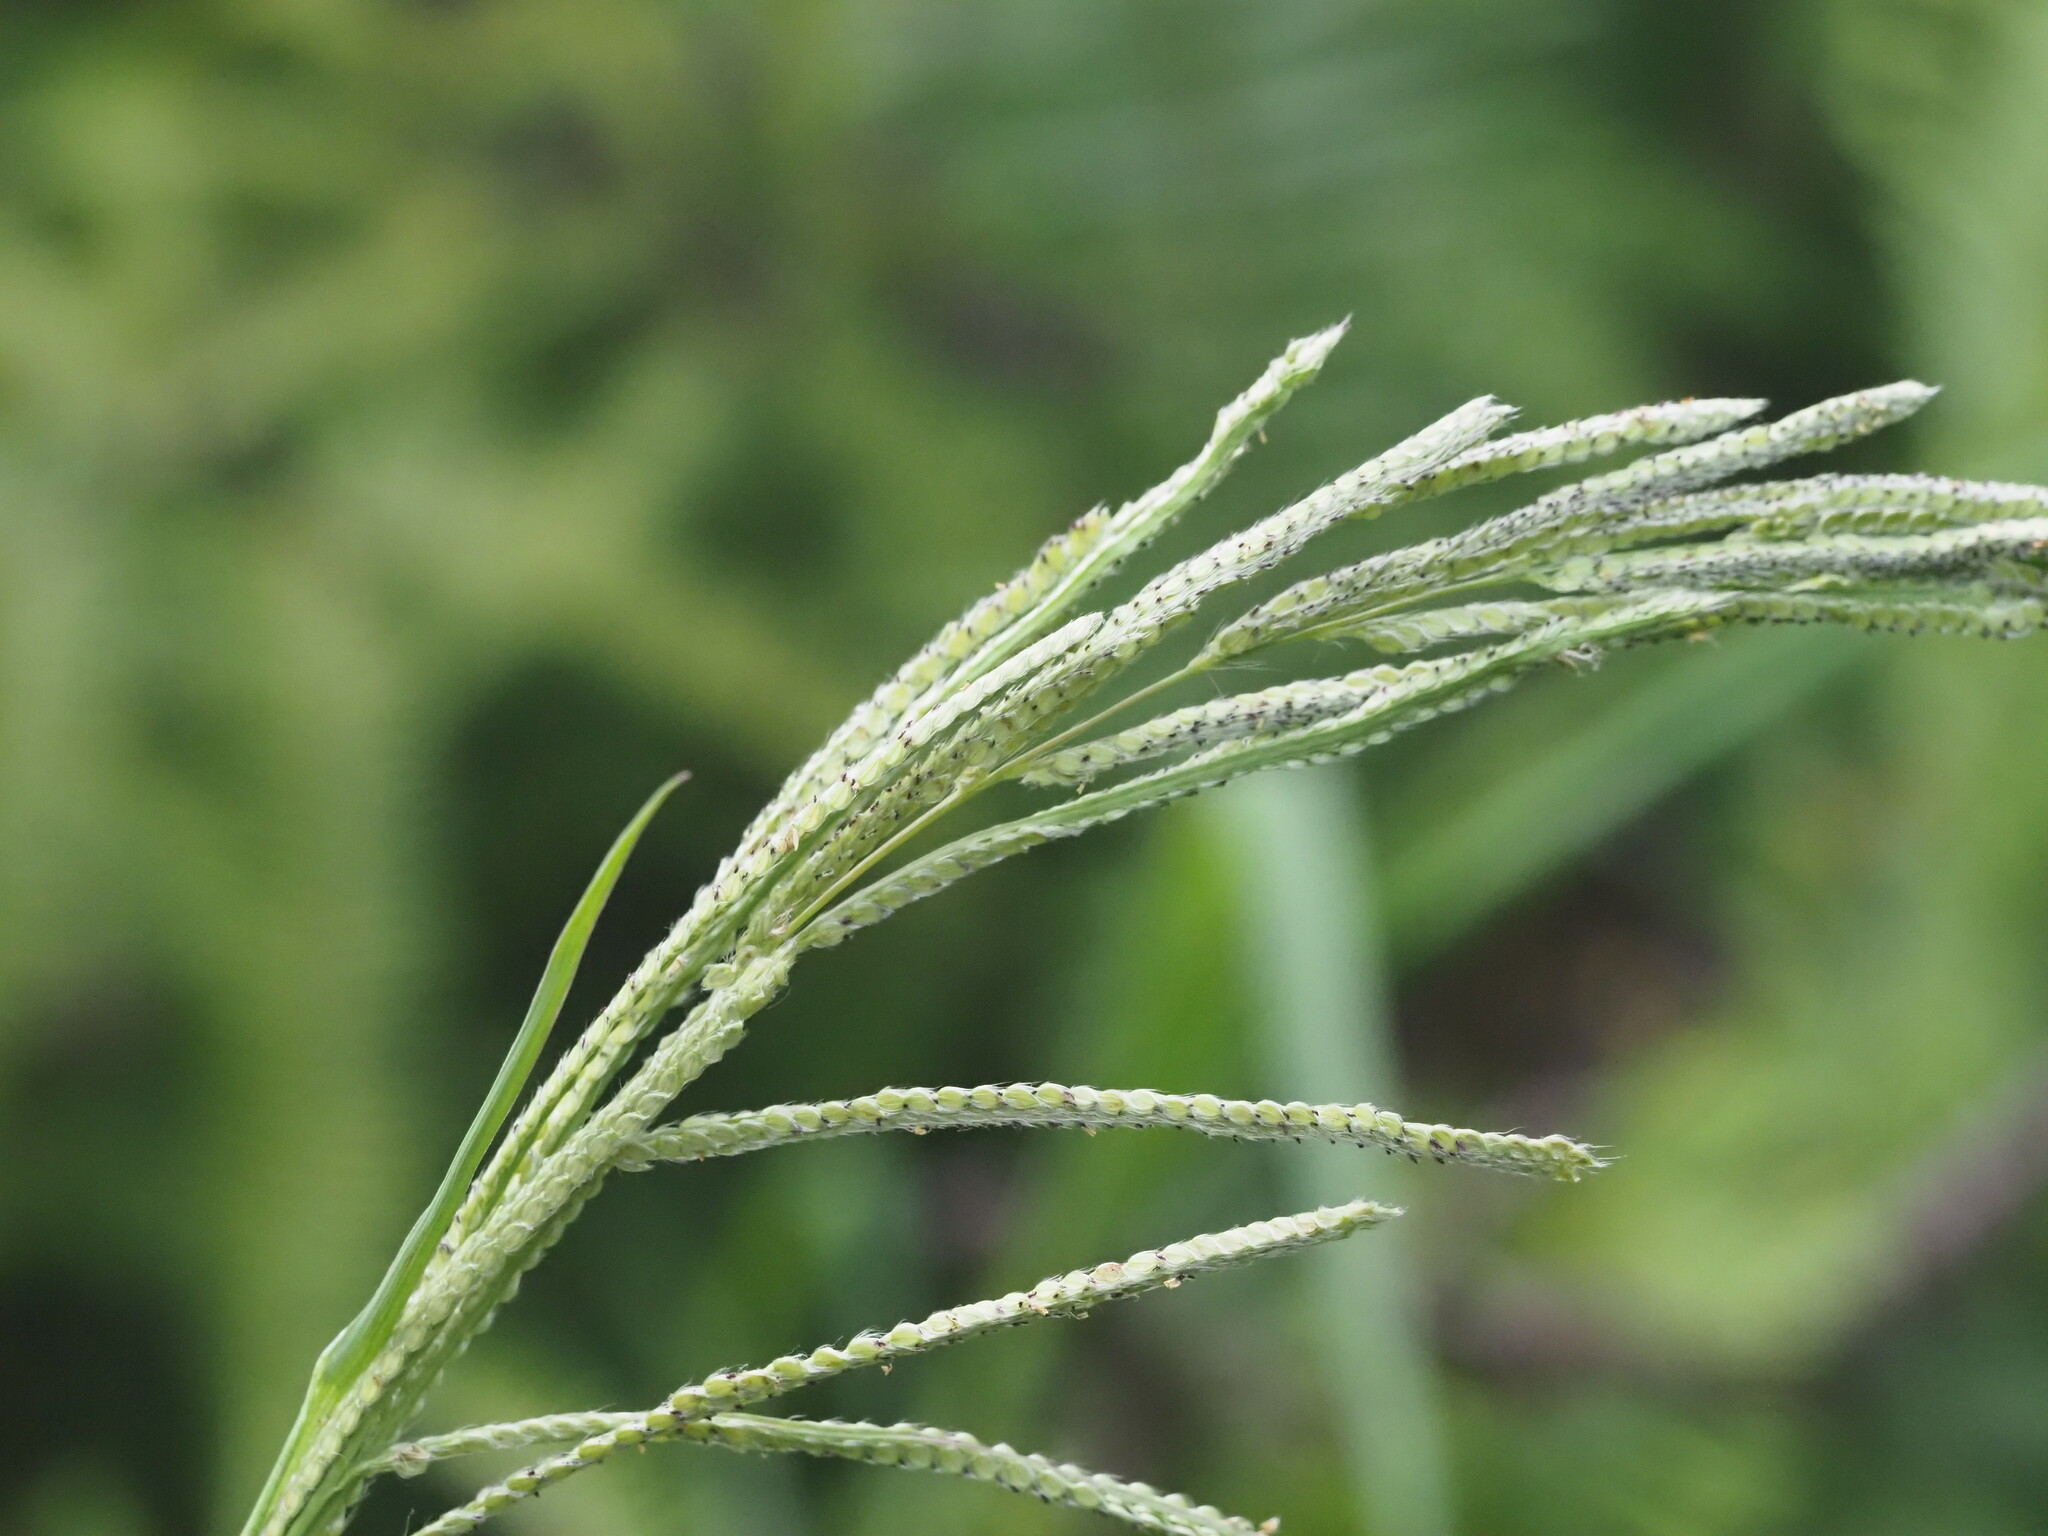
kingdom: Plantae
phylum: Tracheophyta
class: Liliopsida
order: Poales
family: Poaceae
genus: Paspalum
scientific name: Paspalum urvillei
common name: Vasey's grass
